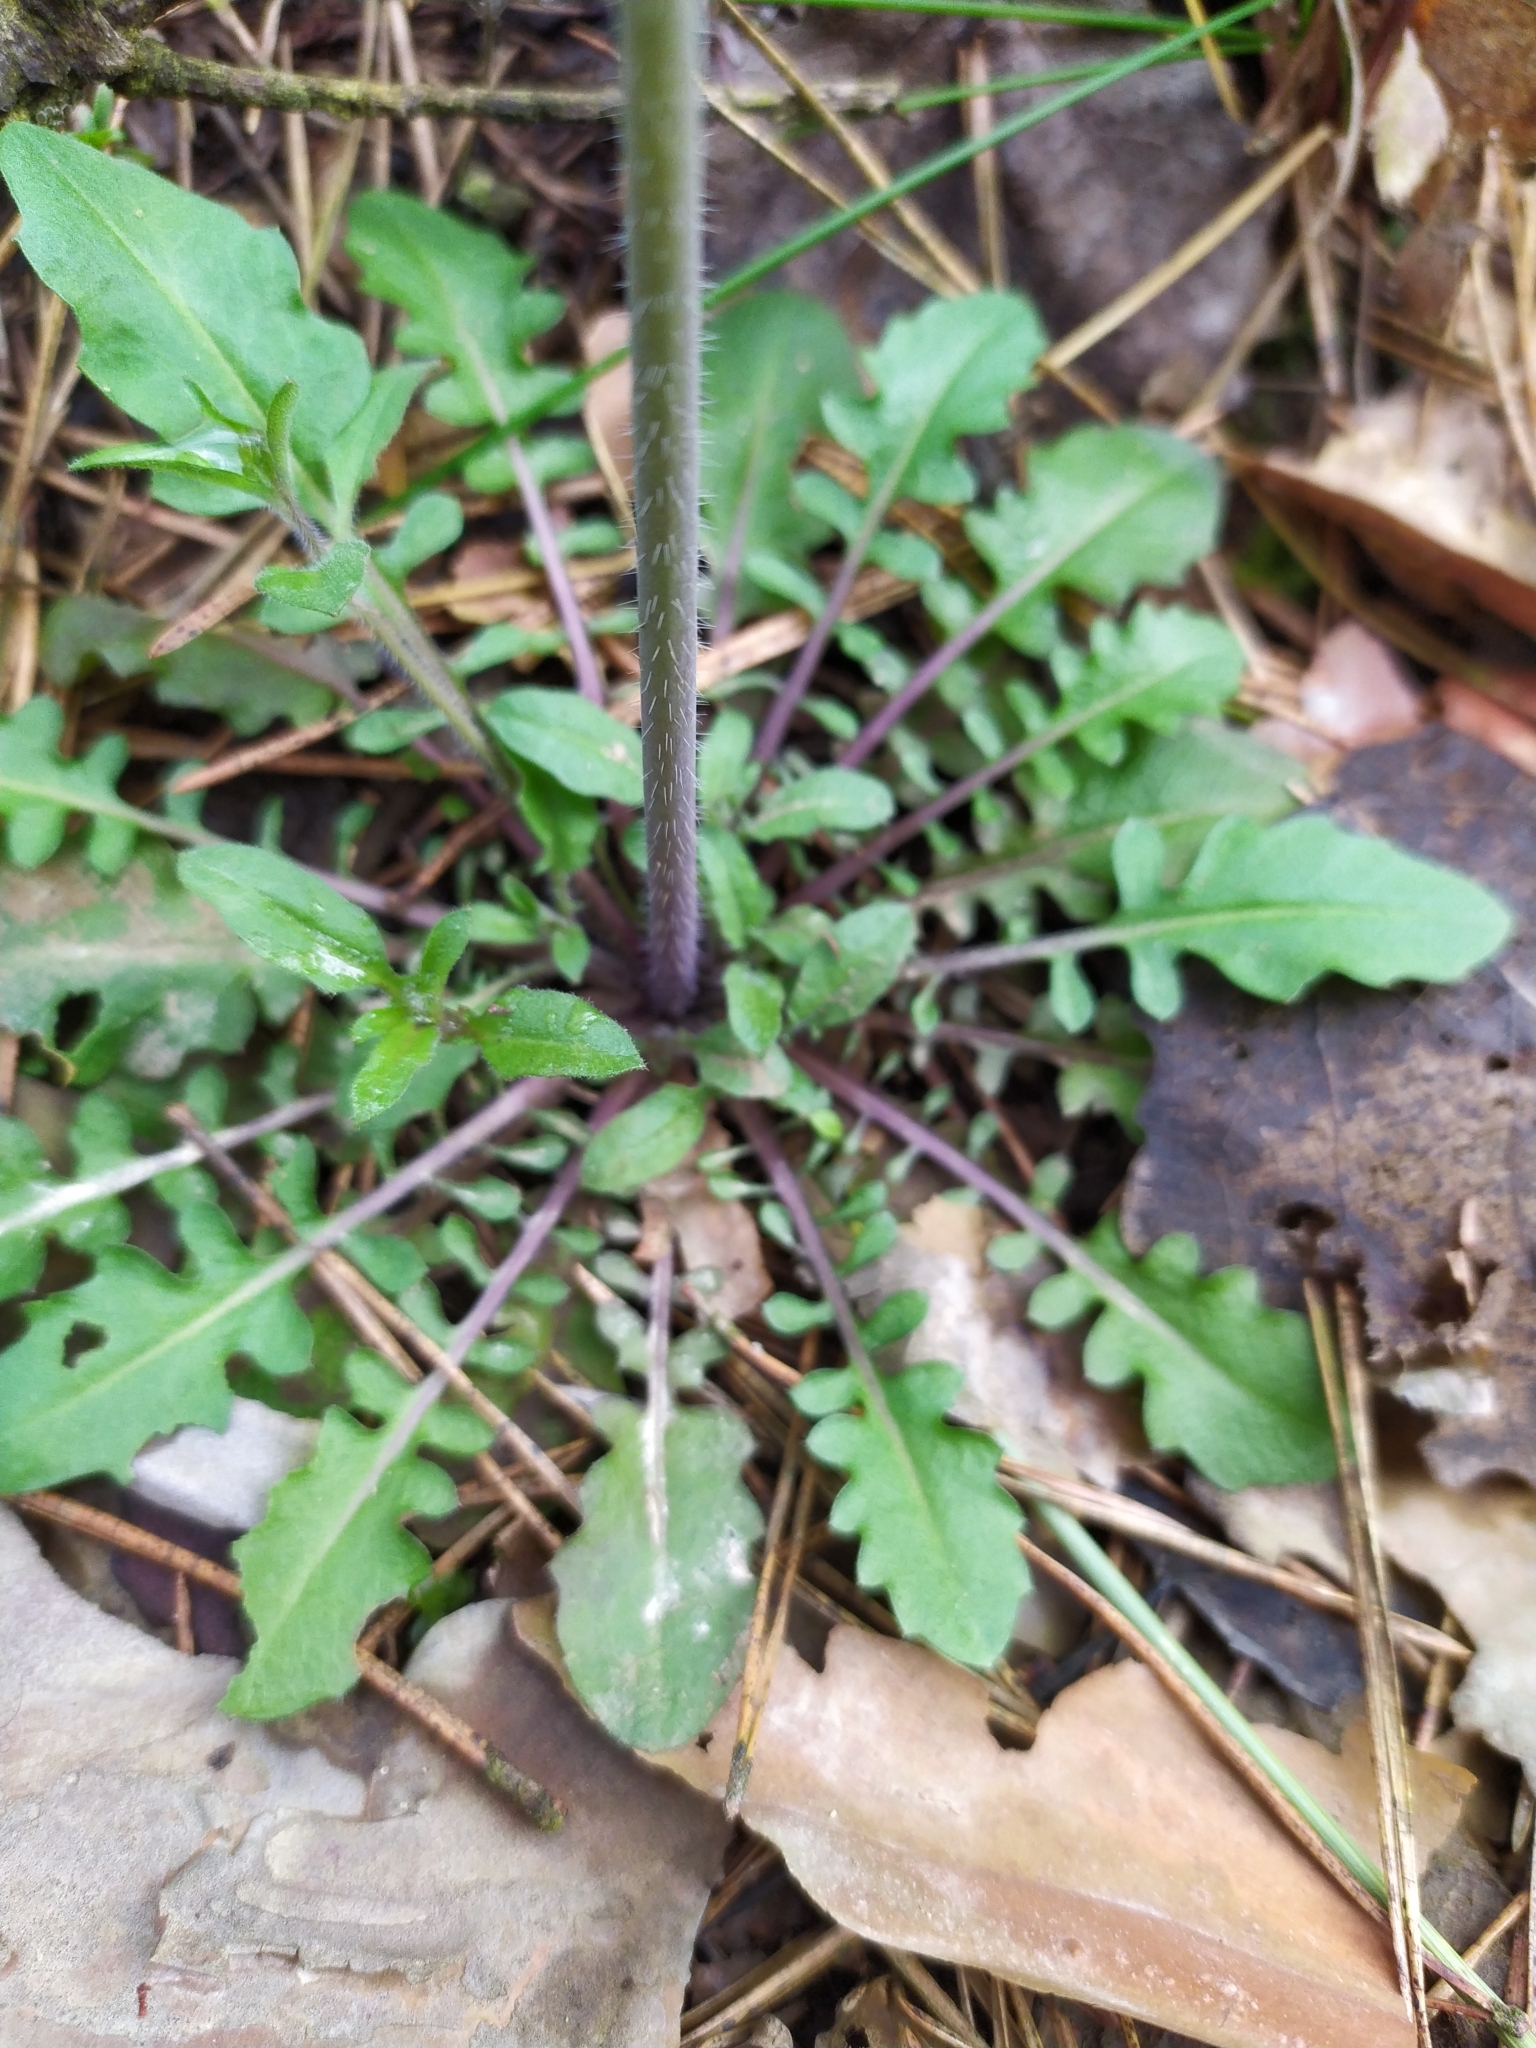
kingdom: Plantae
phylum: Tracheophyta
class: Magnoliopsida
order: Brassicales
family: Brassicaceae
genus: Arabidopsis
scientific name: Arabidopsis arenosa
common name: Sand rock-cress
